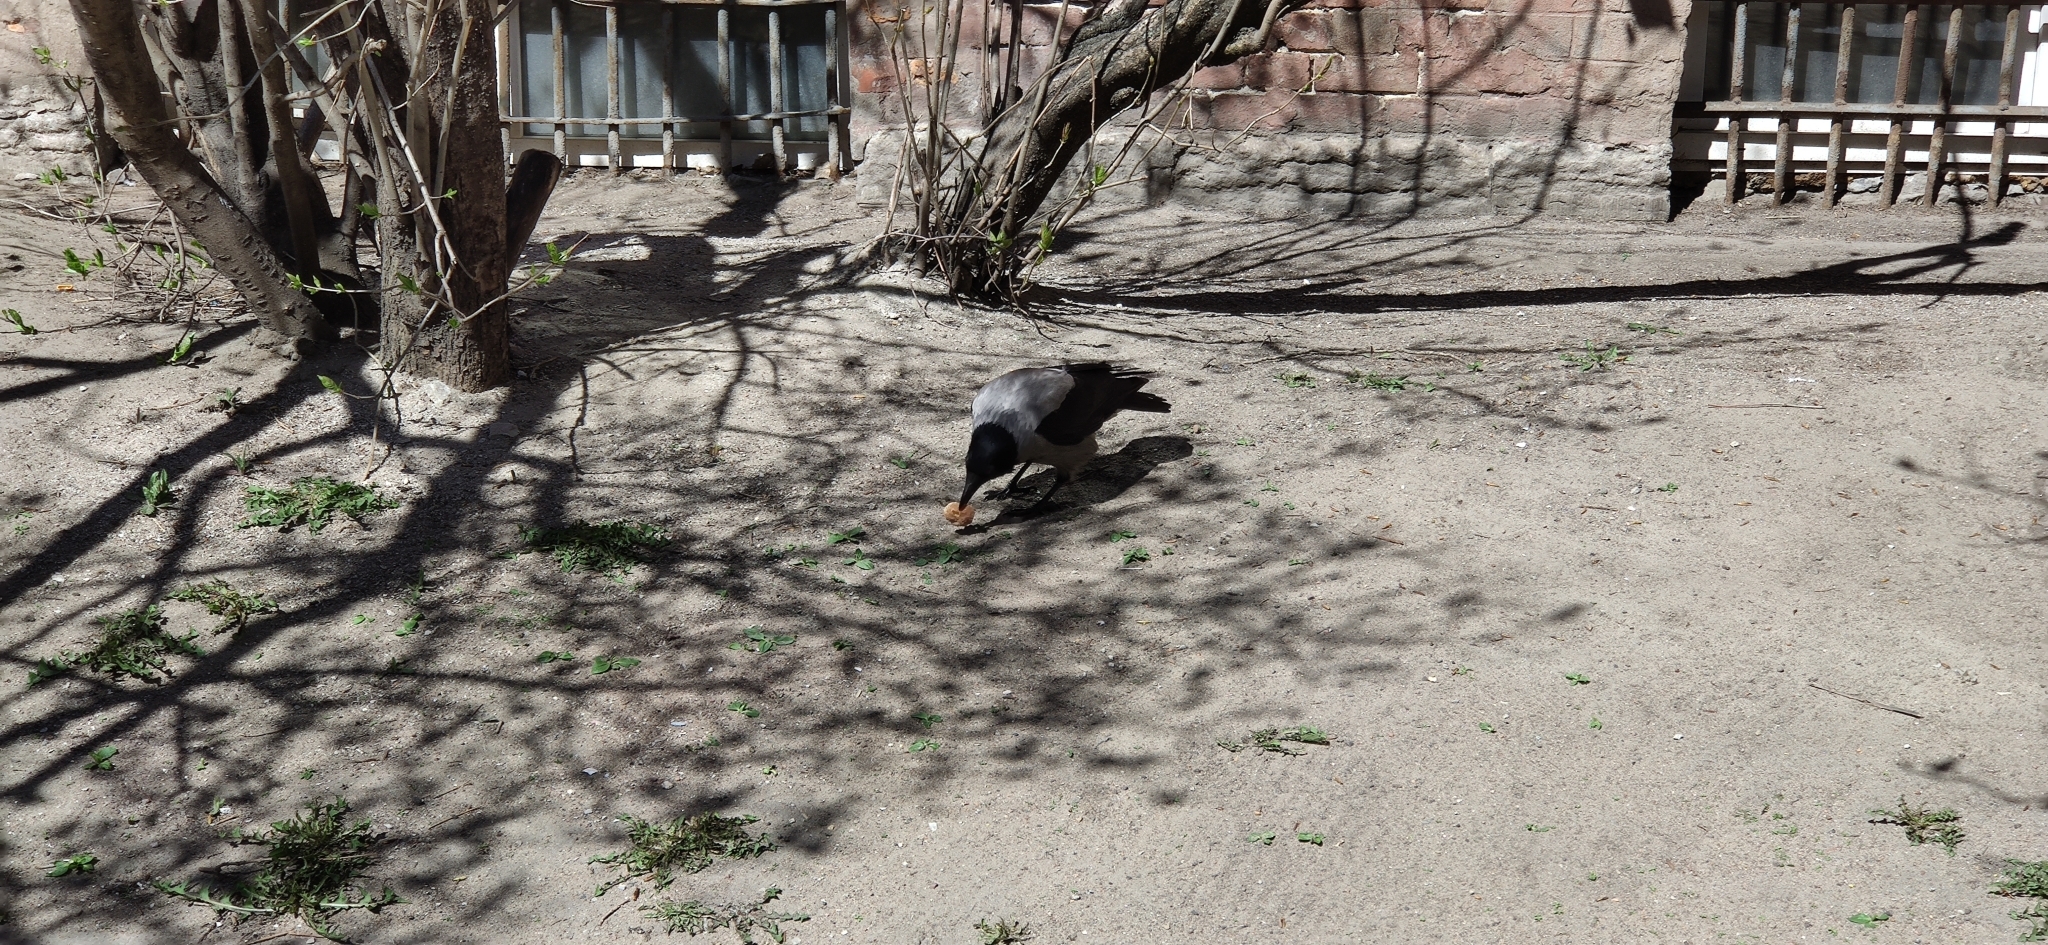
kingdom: Animalia
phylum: Chordata
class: Aves
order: Passeriformes
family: Corvidae
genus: Corvus
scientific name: Corvus cornix
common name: Hooded crow
